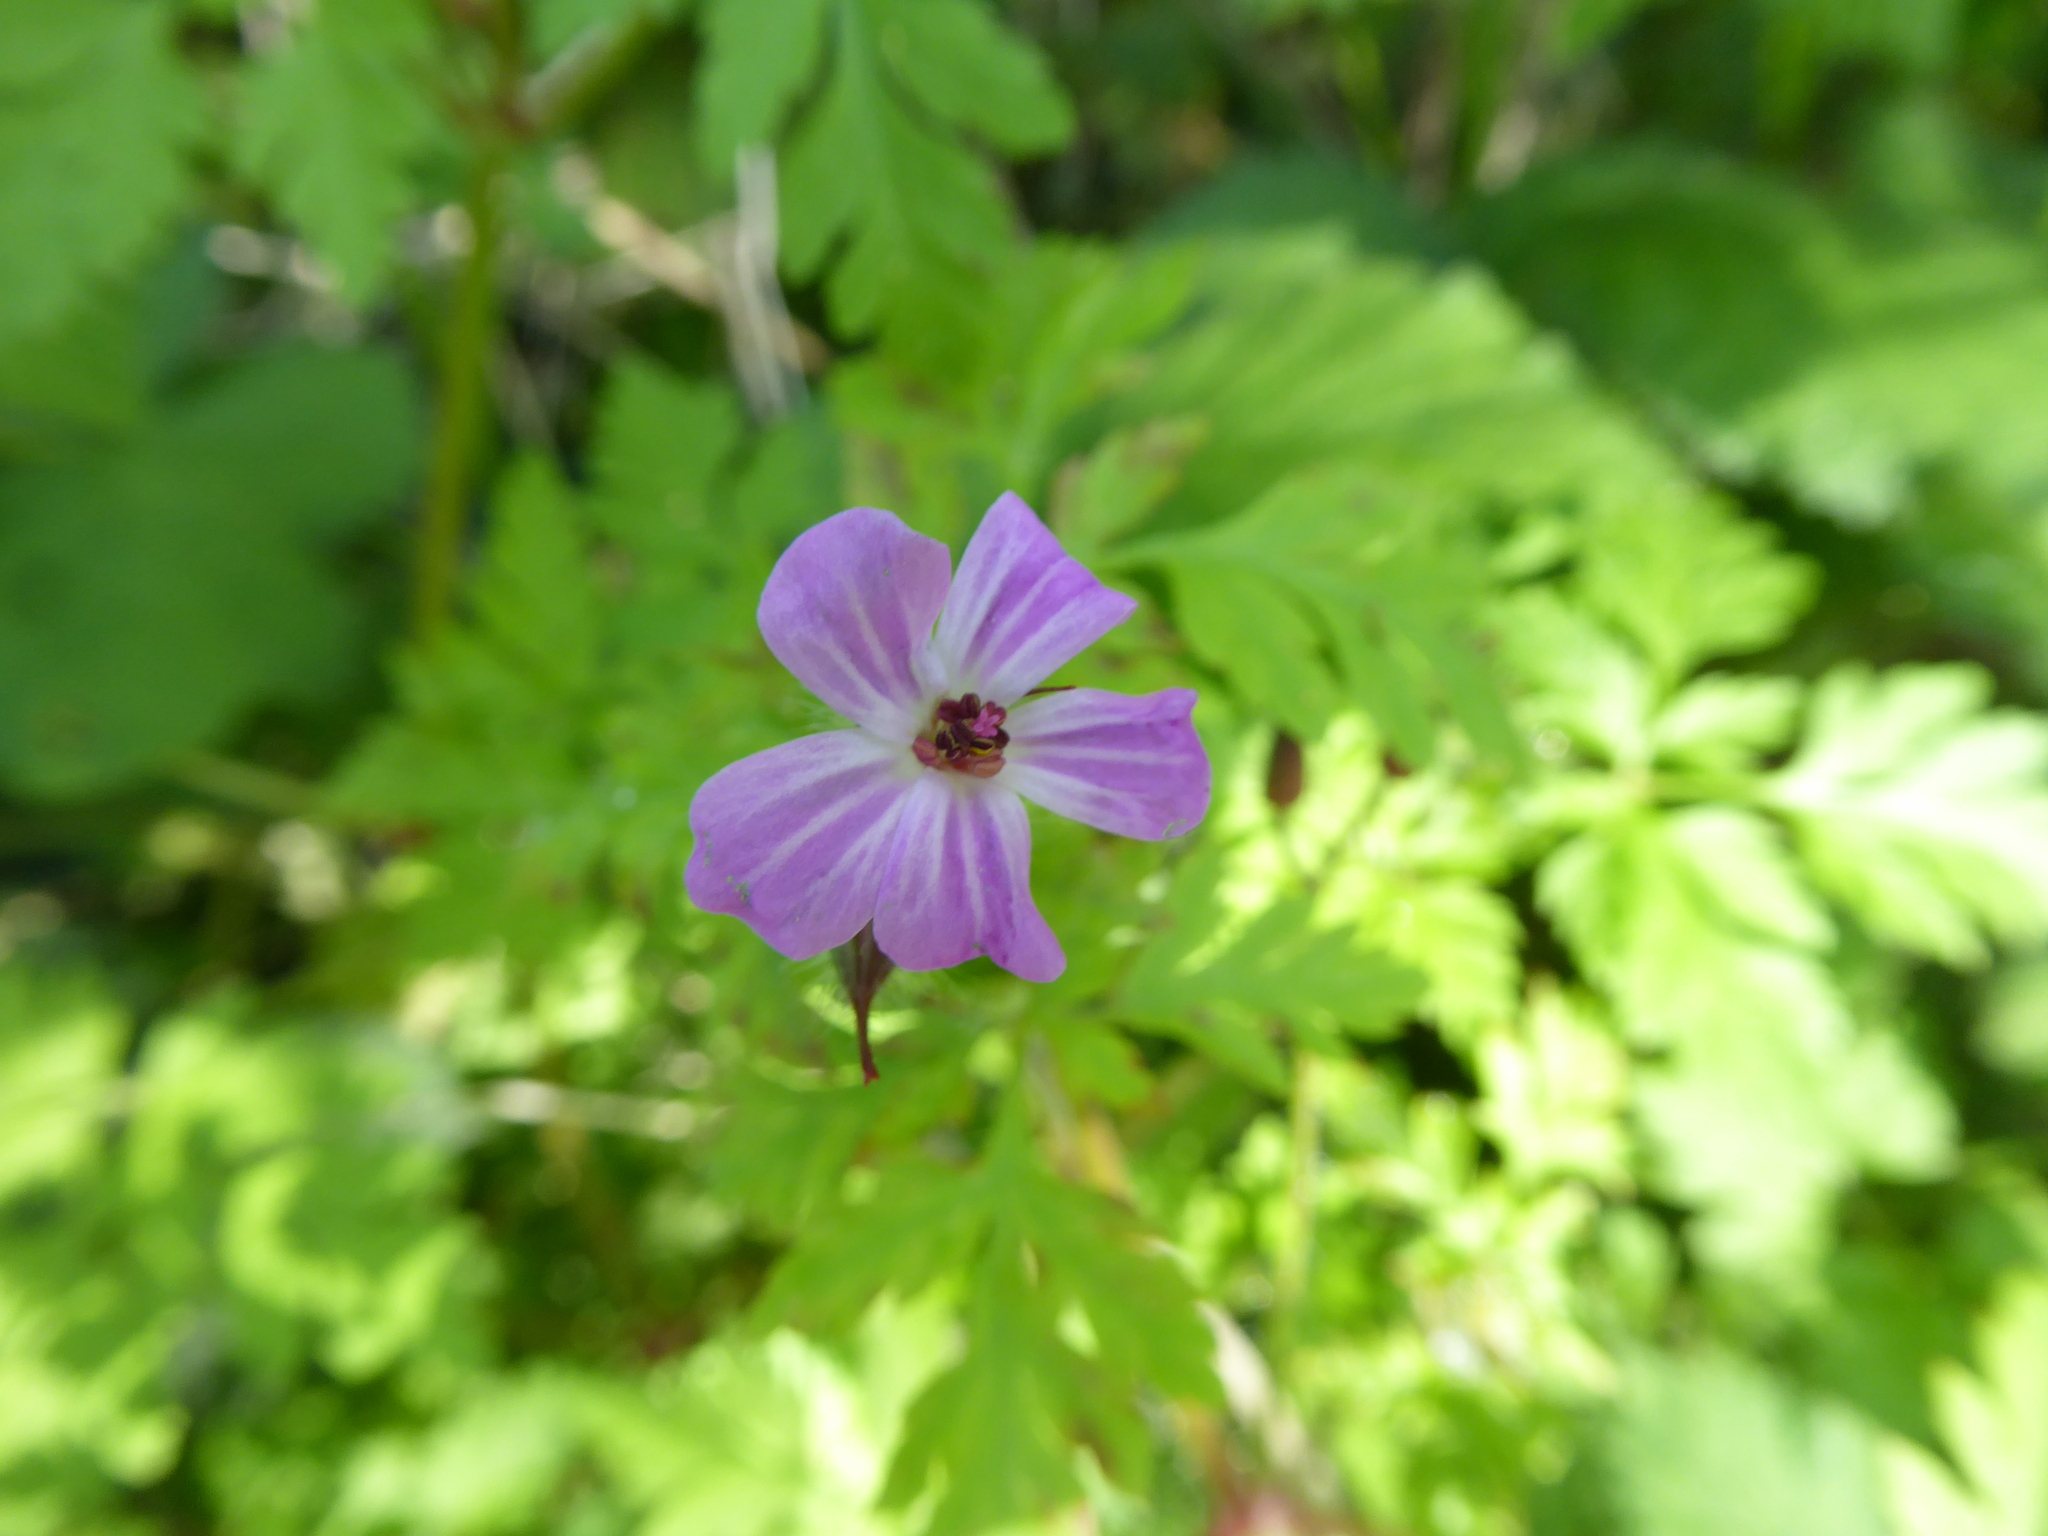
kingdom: Plantae
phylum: Tracheophyta
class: Magnoliopsida
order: Geraniales
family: Geraniaceae
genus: Geranium
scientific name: Geranium robertianum
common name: Herb-robert
